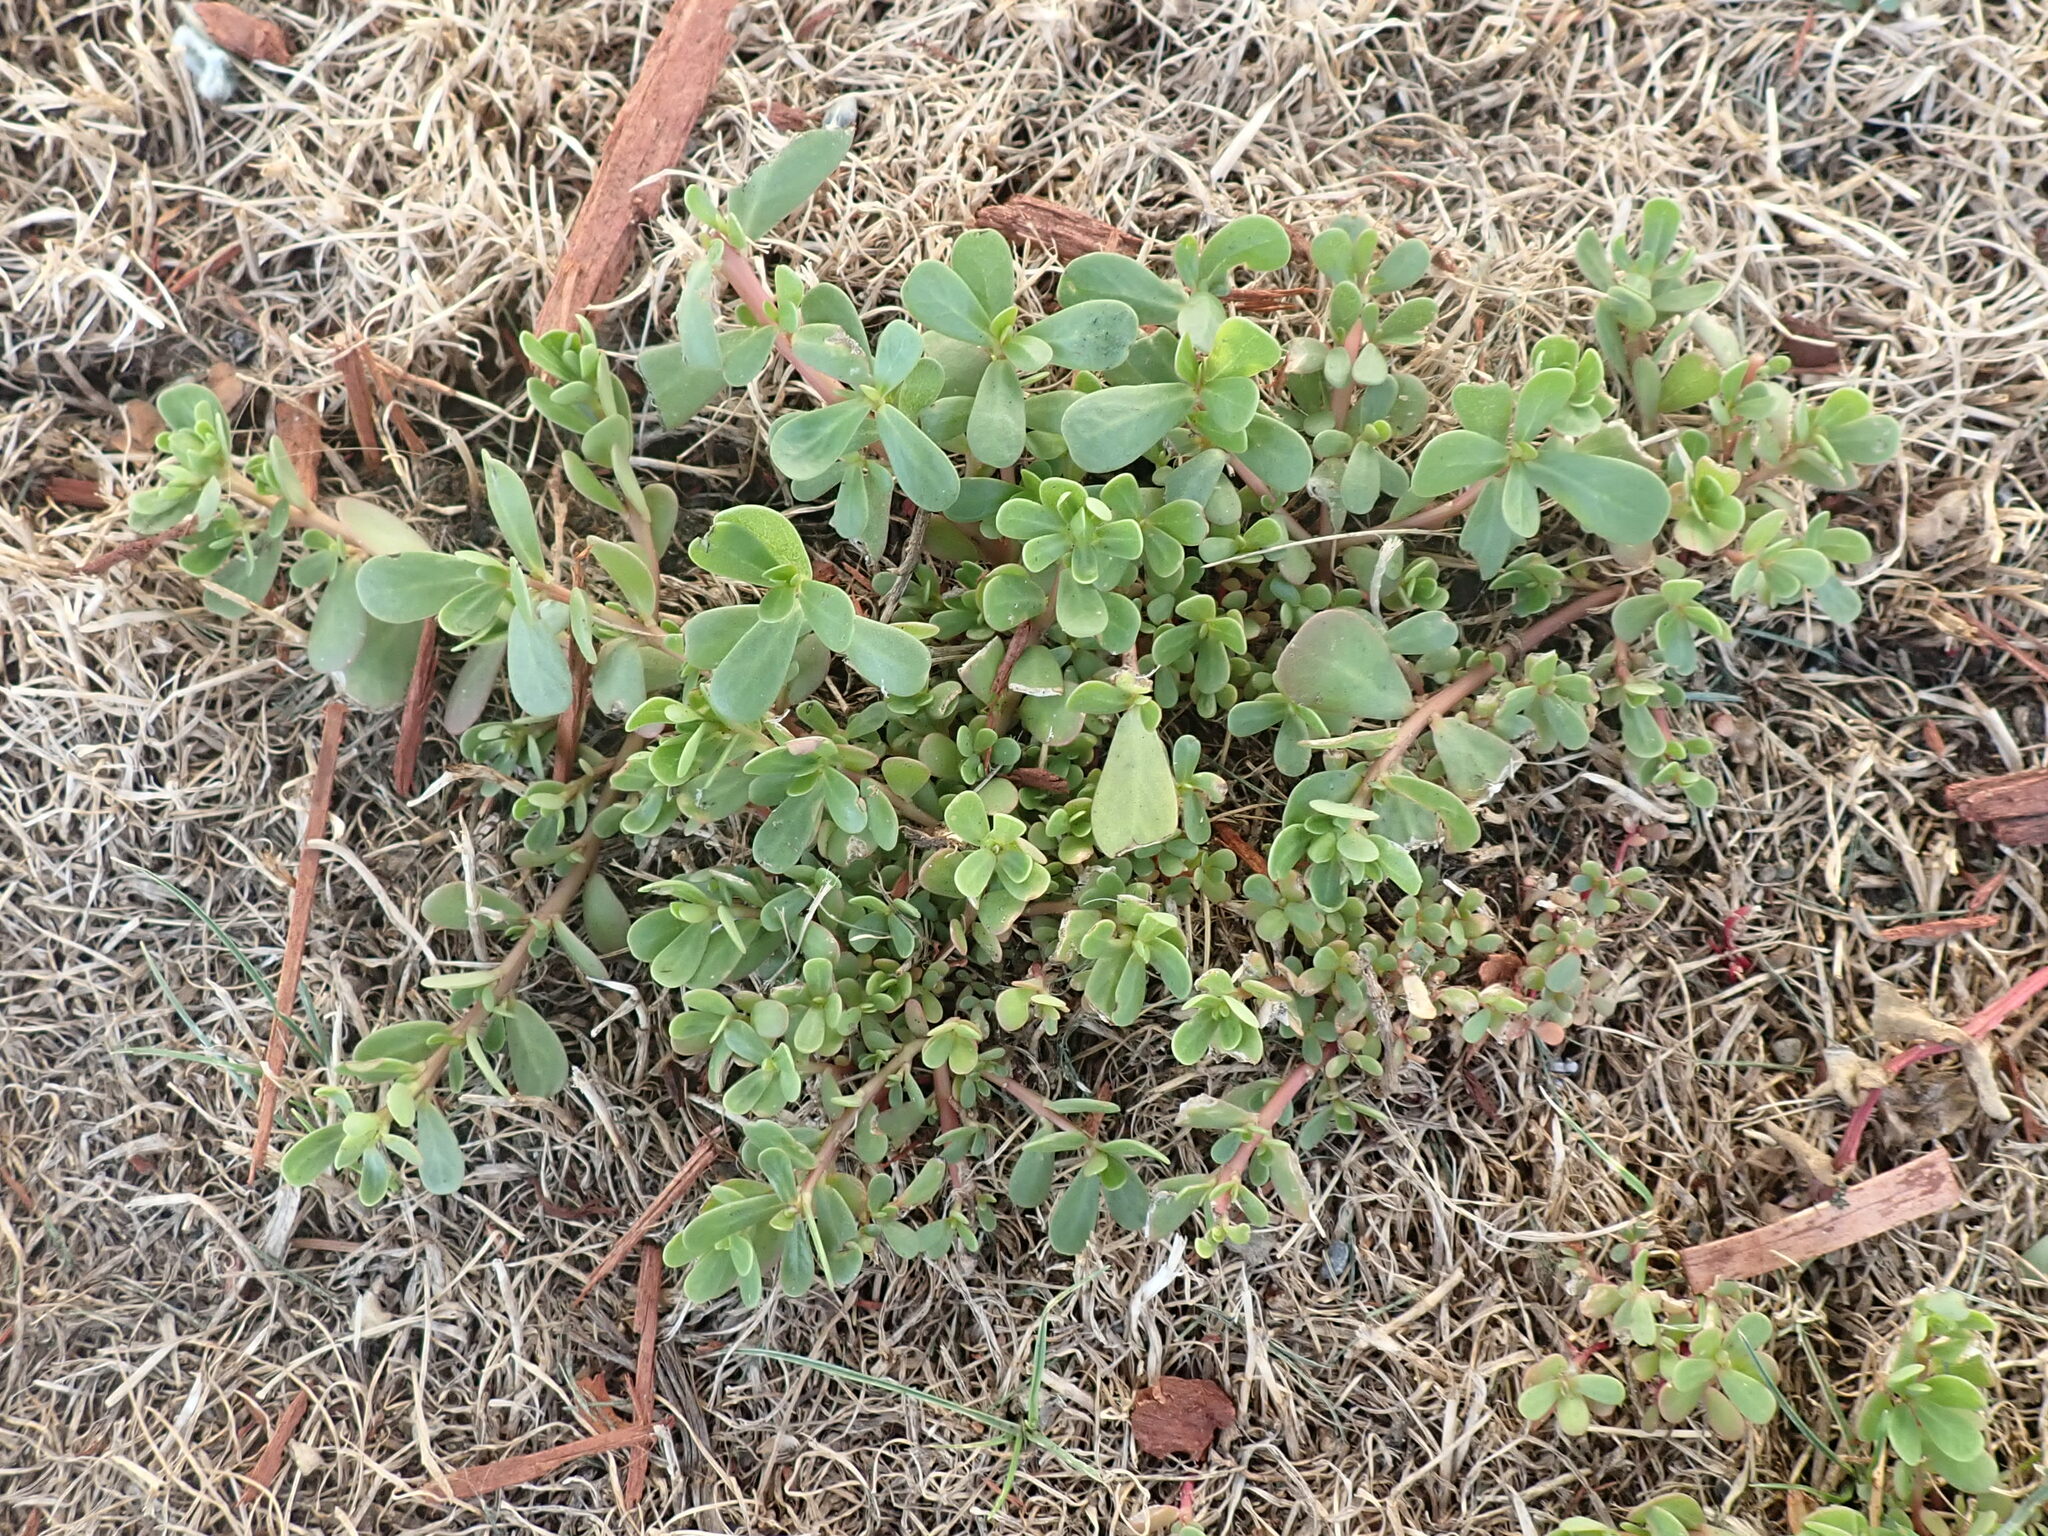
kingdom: Plantae
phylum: Tracheophyta
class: Magnoliopsida
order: Caryophyllales
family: Portulacaceae
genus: Portulaca
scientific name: Portulaca oleracea
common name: Common purslane
